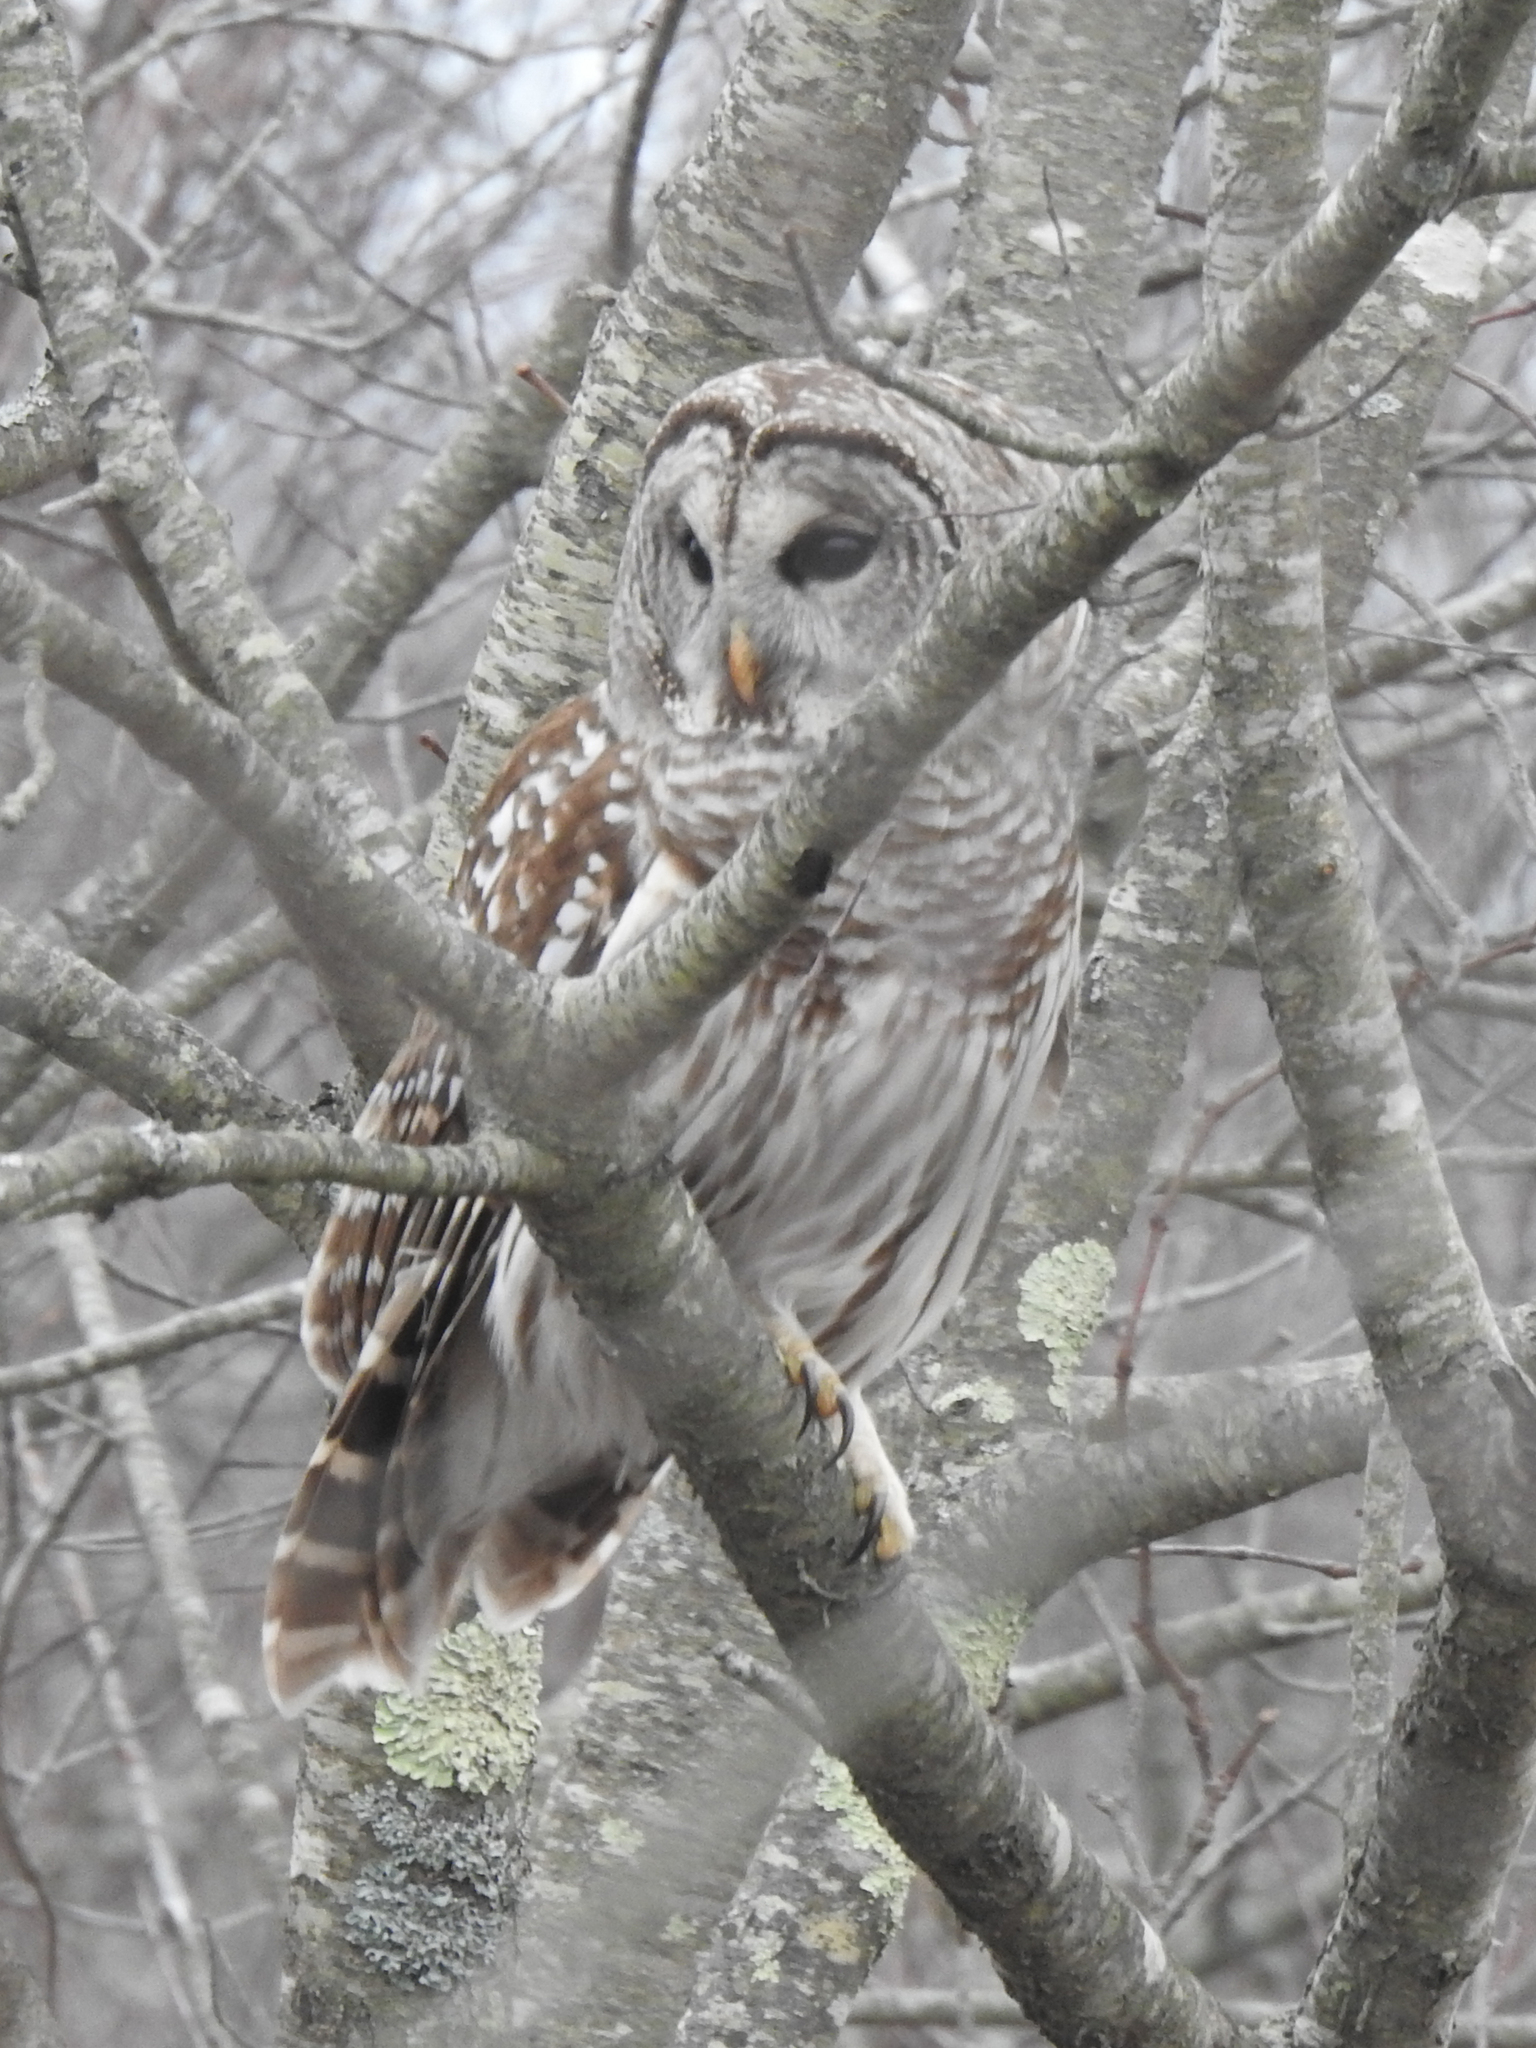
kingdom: Animalia
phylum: Chordata
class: Aves
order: Strigiformes
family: Strigidae
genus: Strix
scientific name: Strix varia
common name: Barred owl
